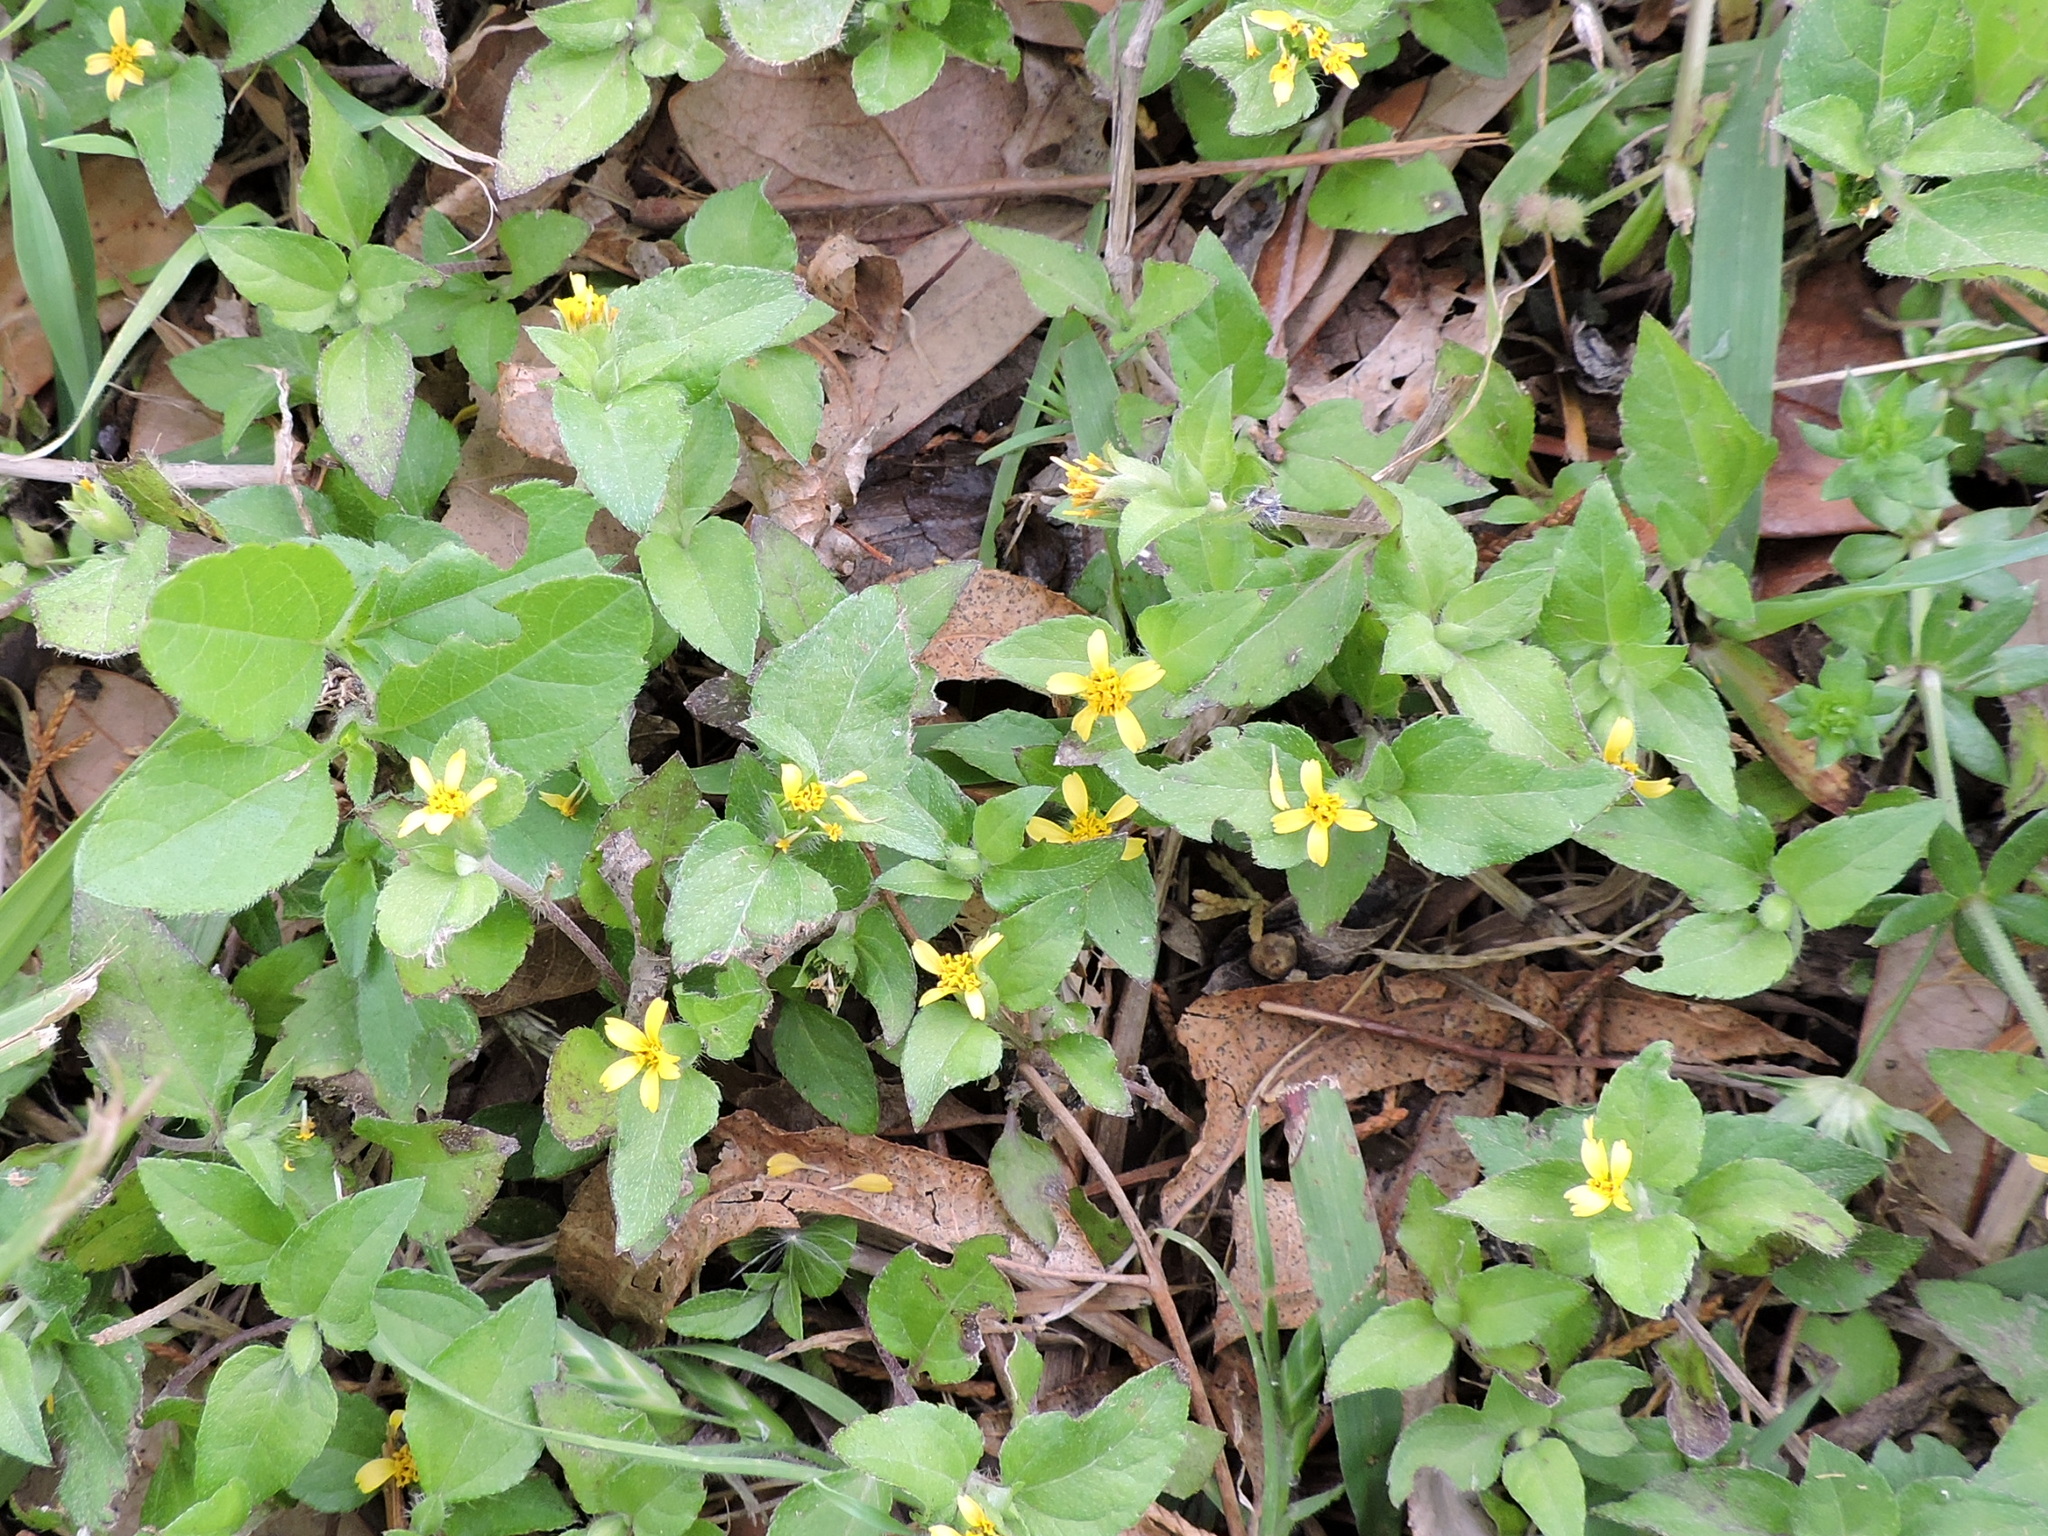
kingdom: Plantae
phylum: Tracheophyta
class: Magnoliopsida
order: Asterales
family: Asteraceae
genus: Calyptocarpus
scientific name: Calyptocarpus vialis
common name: Straggler daisy
